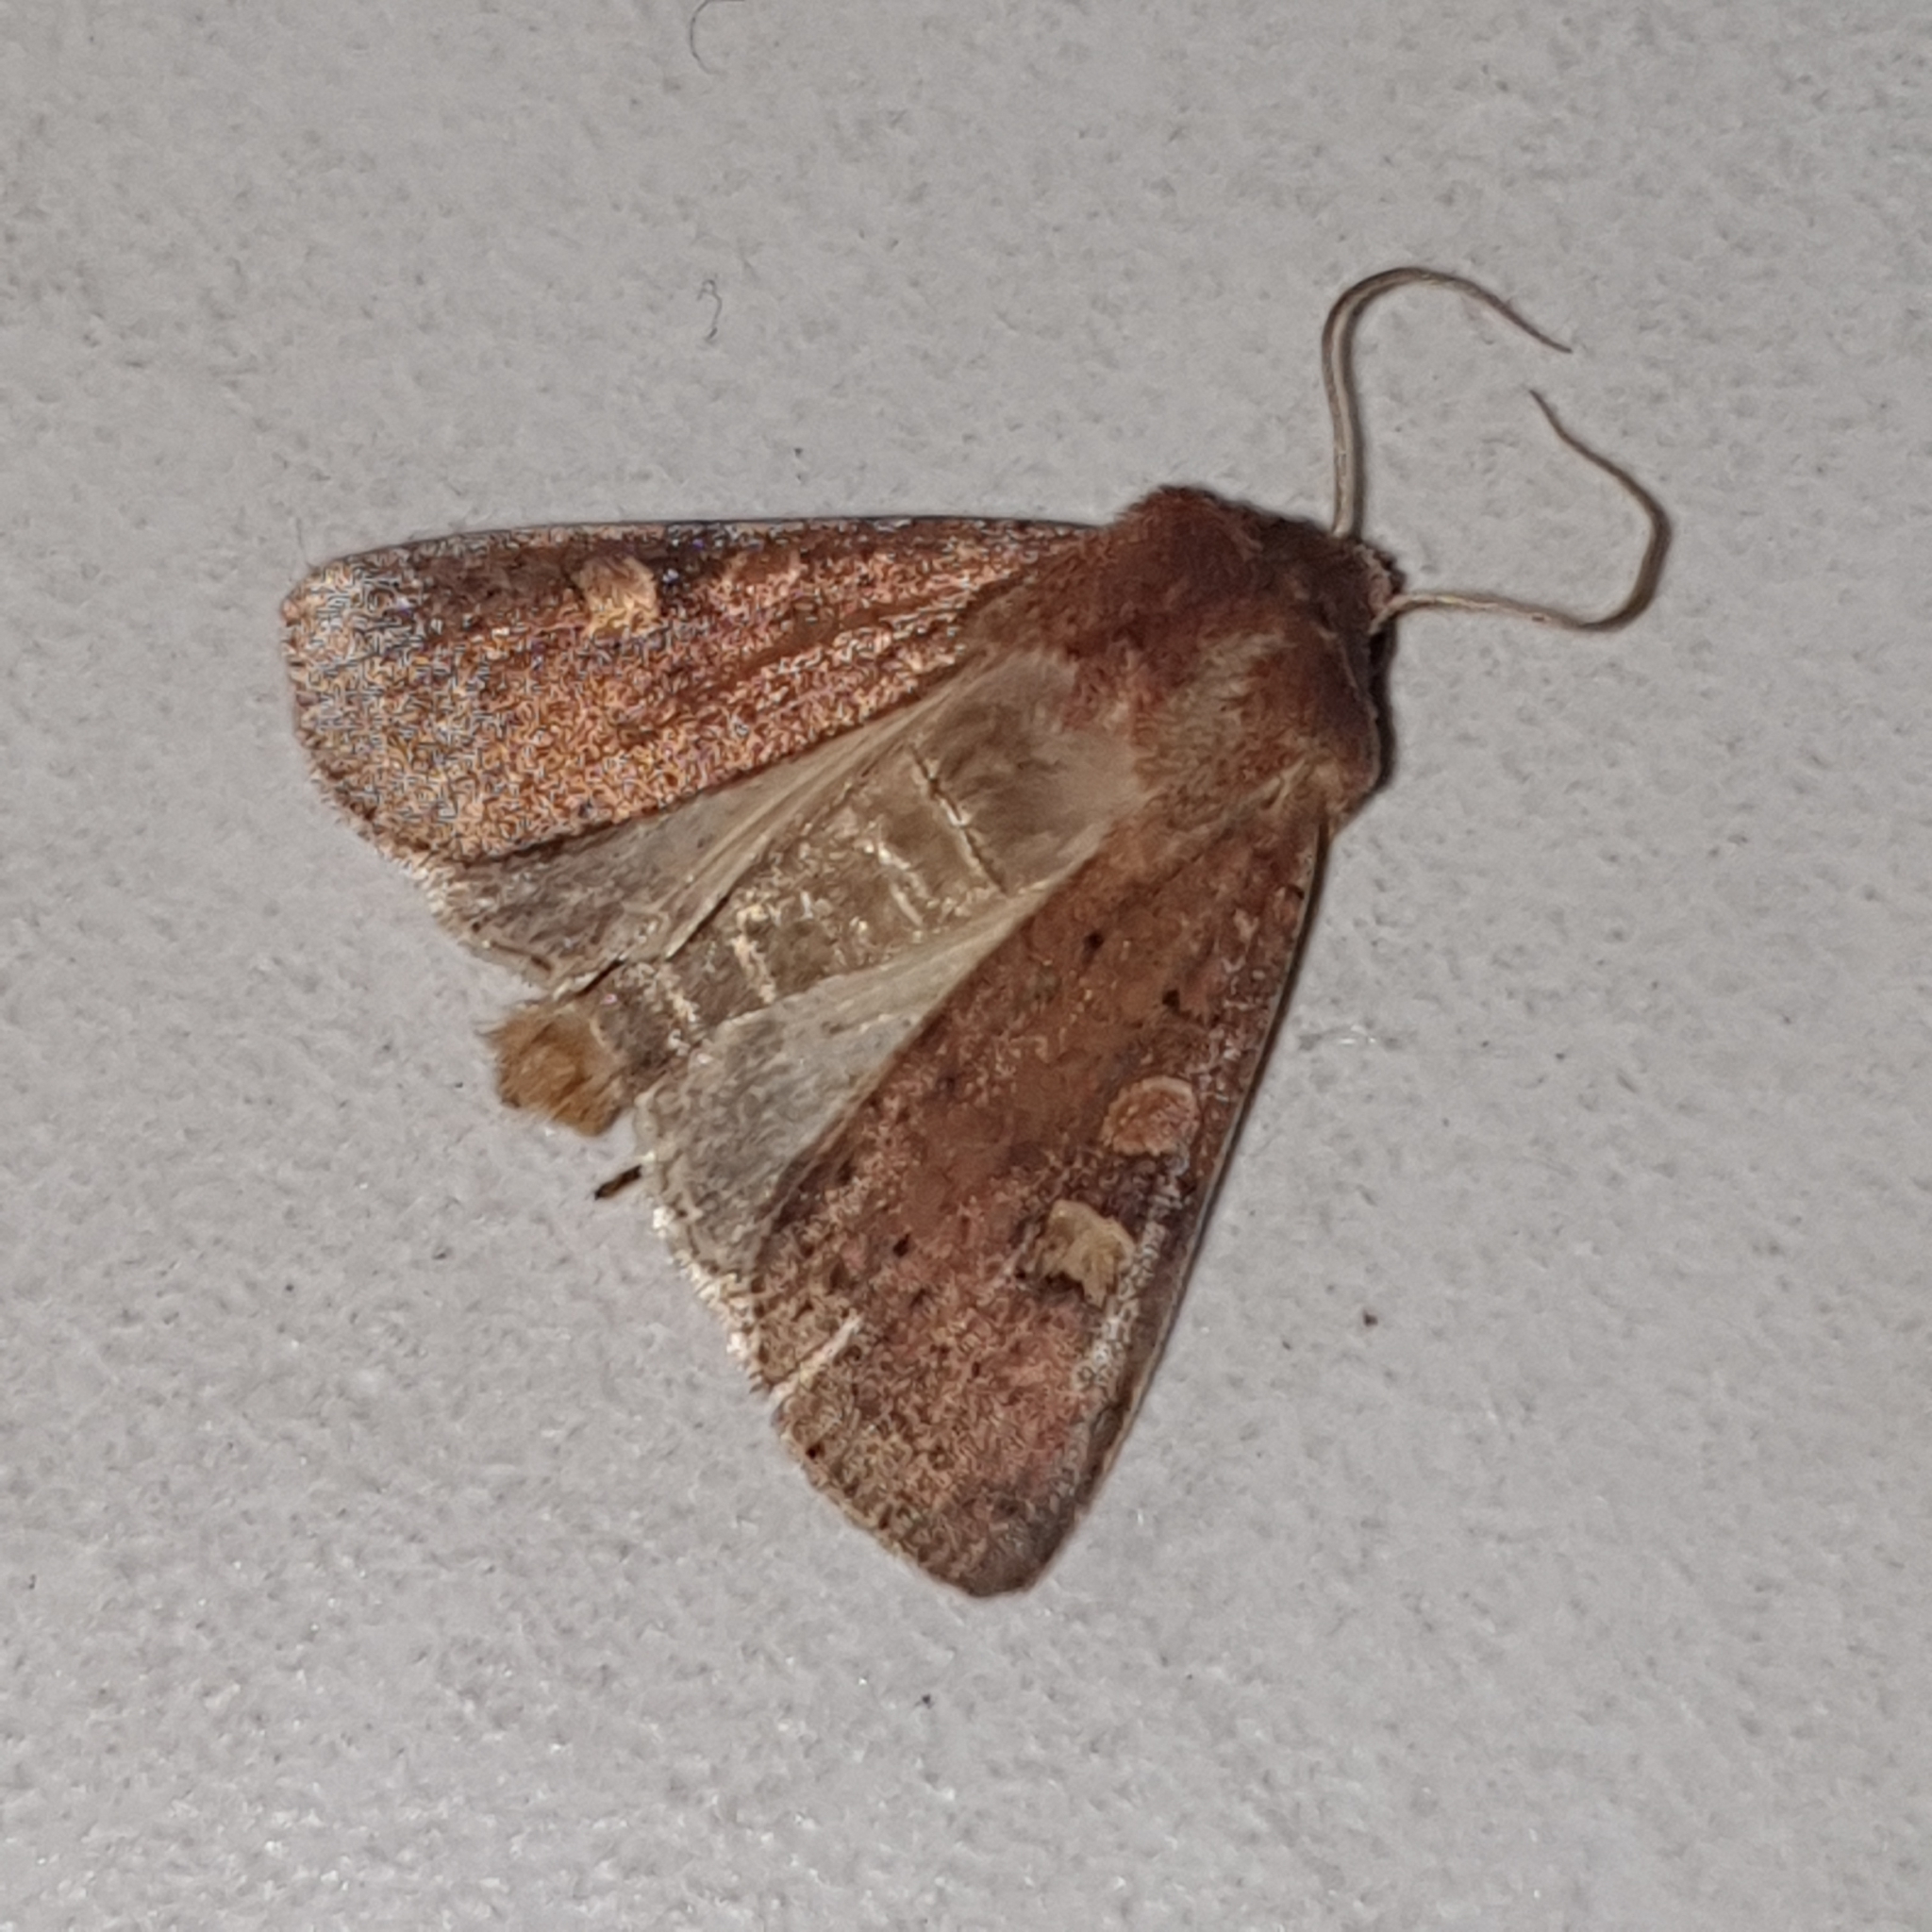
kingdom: Animalia
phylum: Arthropoda
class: Insecta
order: Lepidoptera
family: Noctuidae
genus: Xestia
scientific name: Xestia xanthographa
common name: Square-spot rustic
